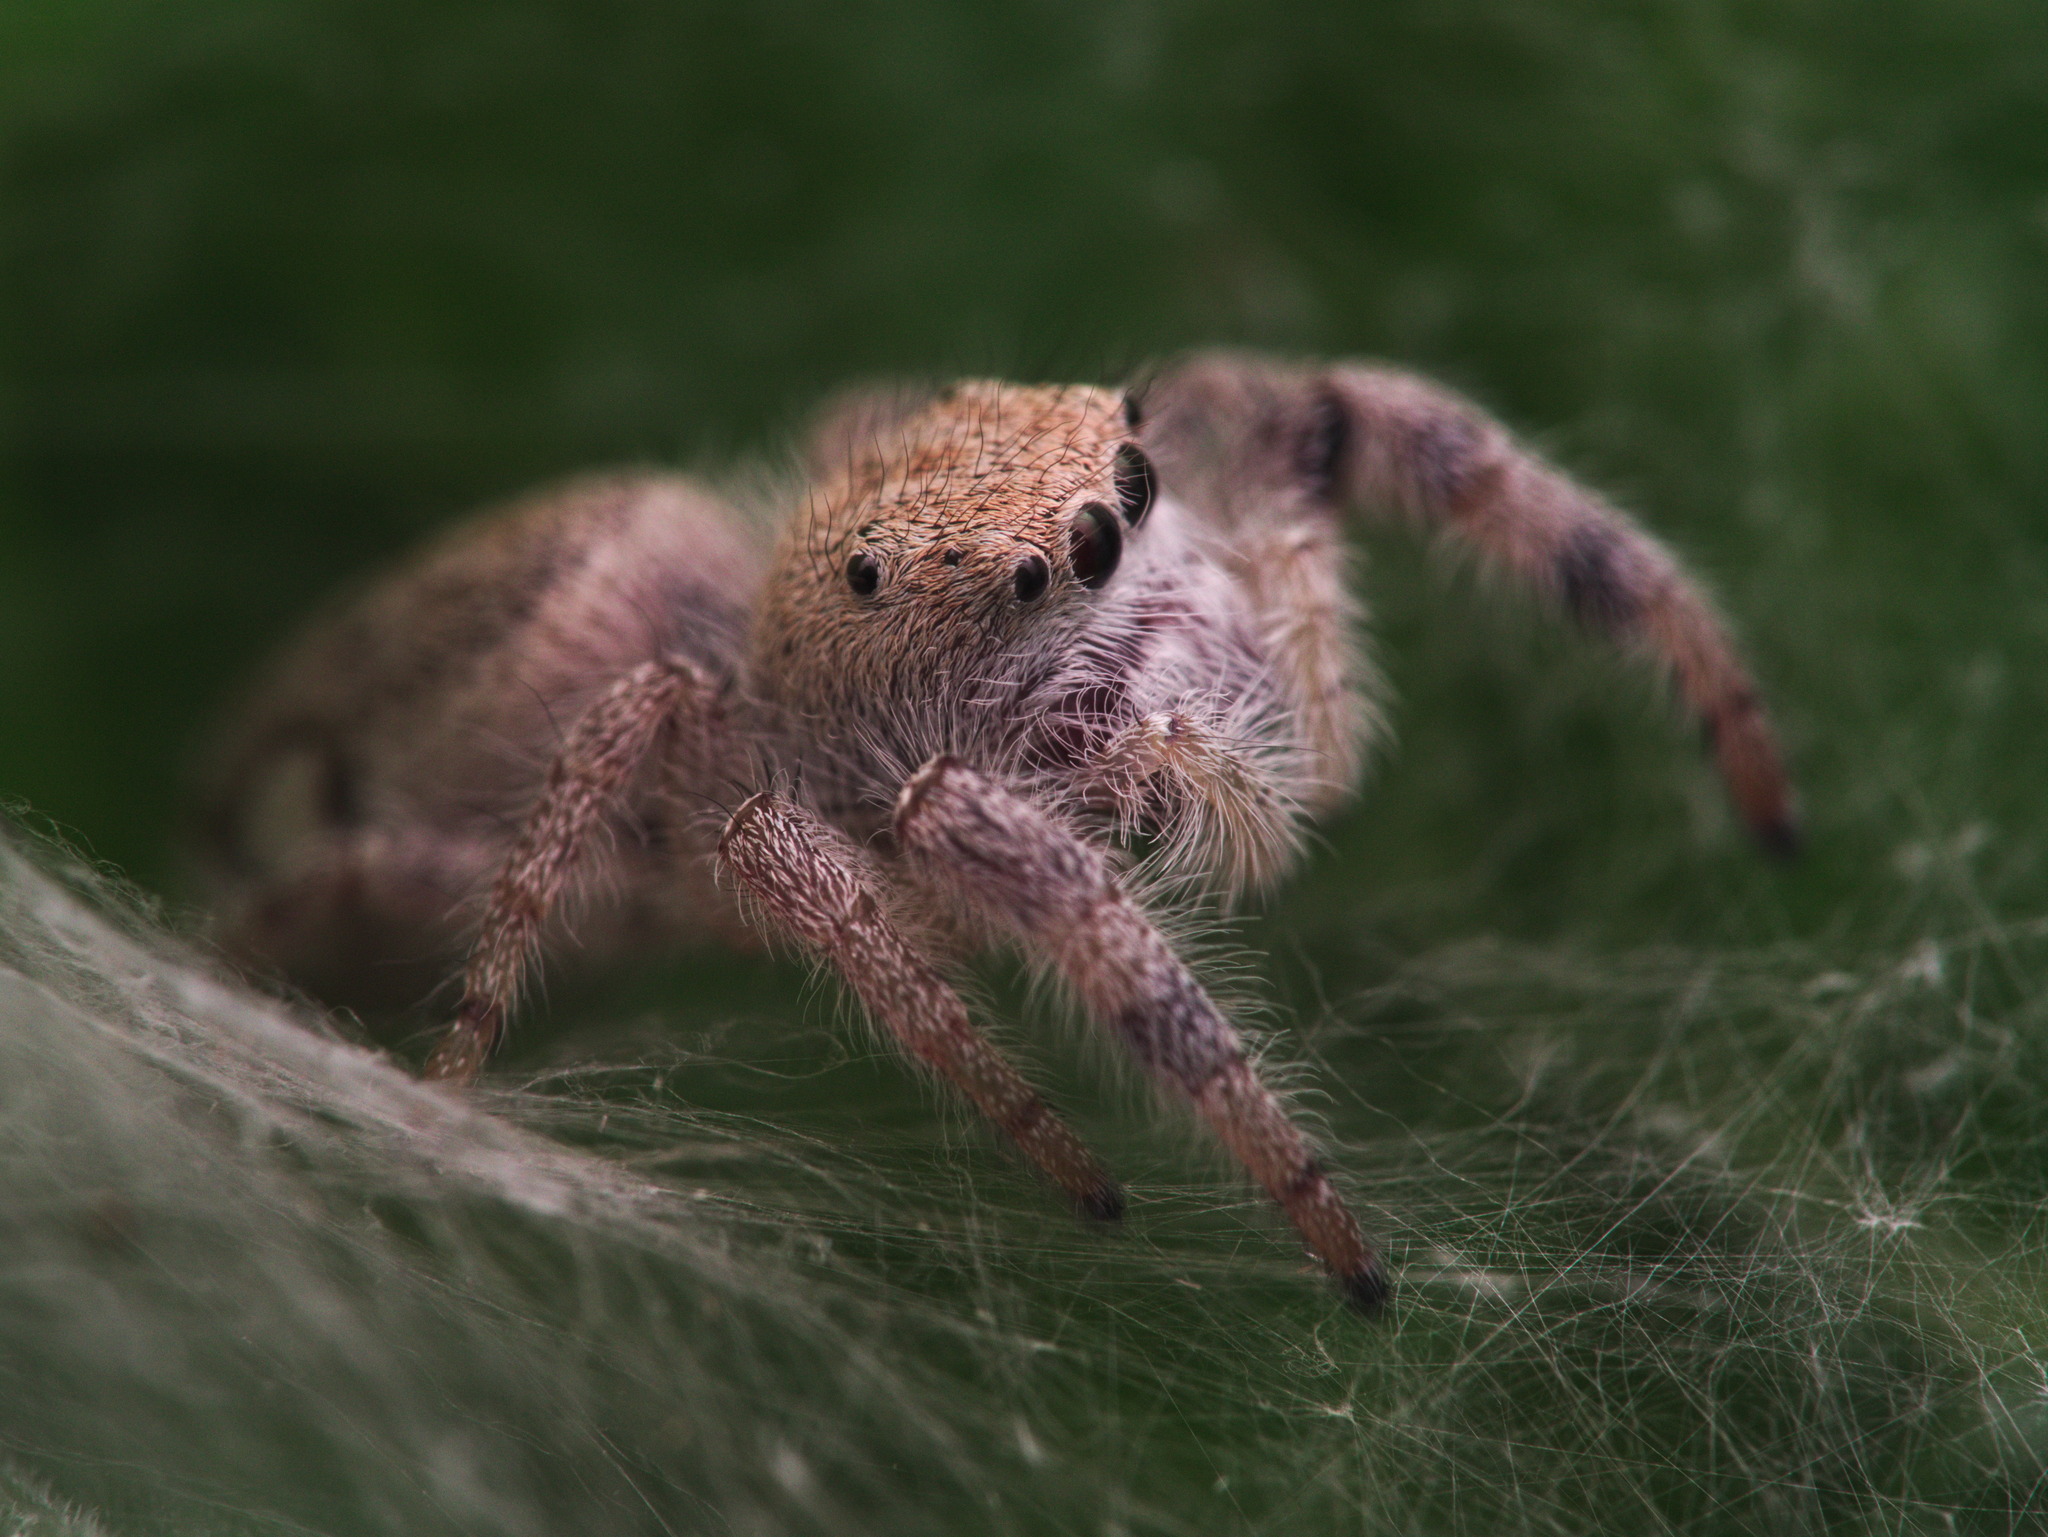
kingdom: Animalia
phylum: Arthropoda
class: Arachnida
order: Araneae
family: Salticidae
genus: Paraphidippus
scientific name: Paraphidippus fartilis
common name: Jumping spiders
